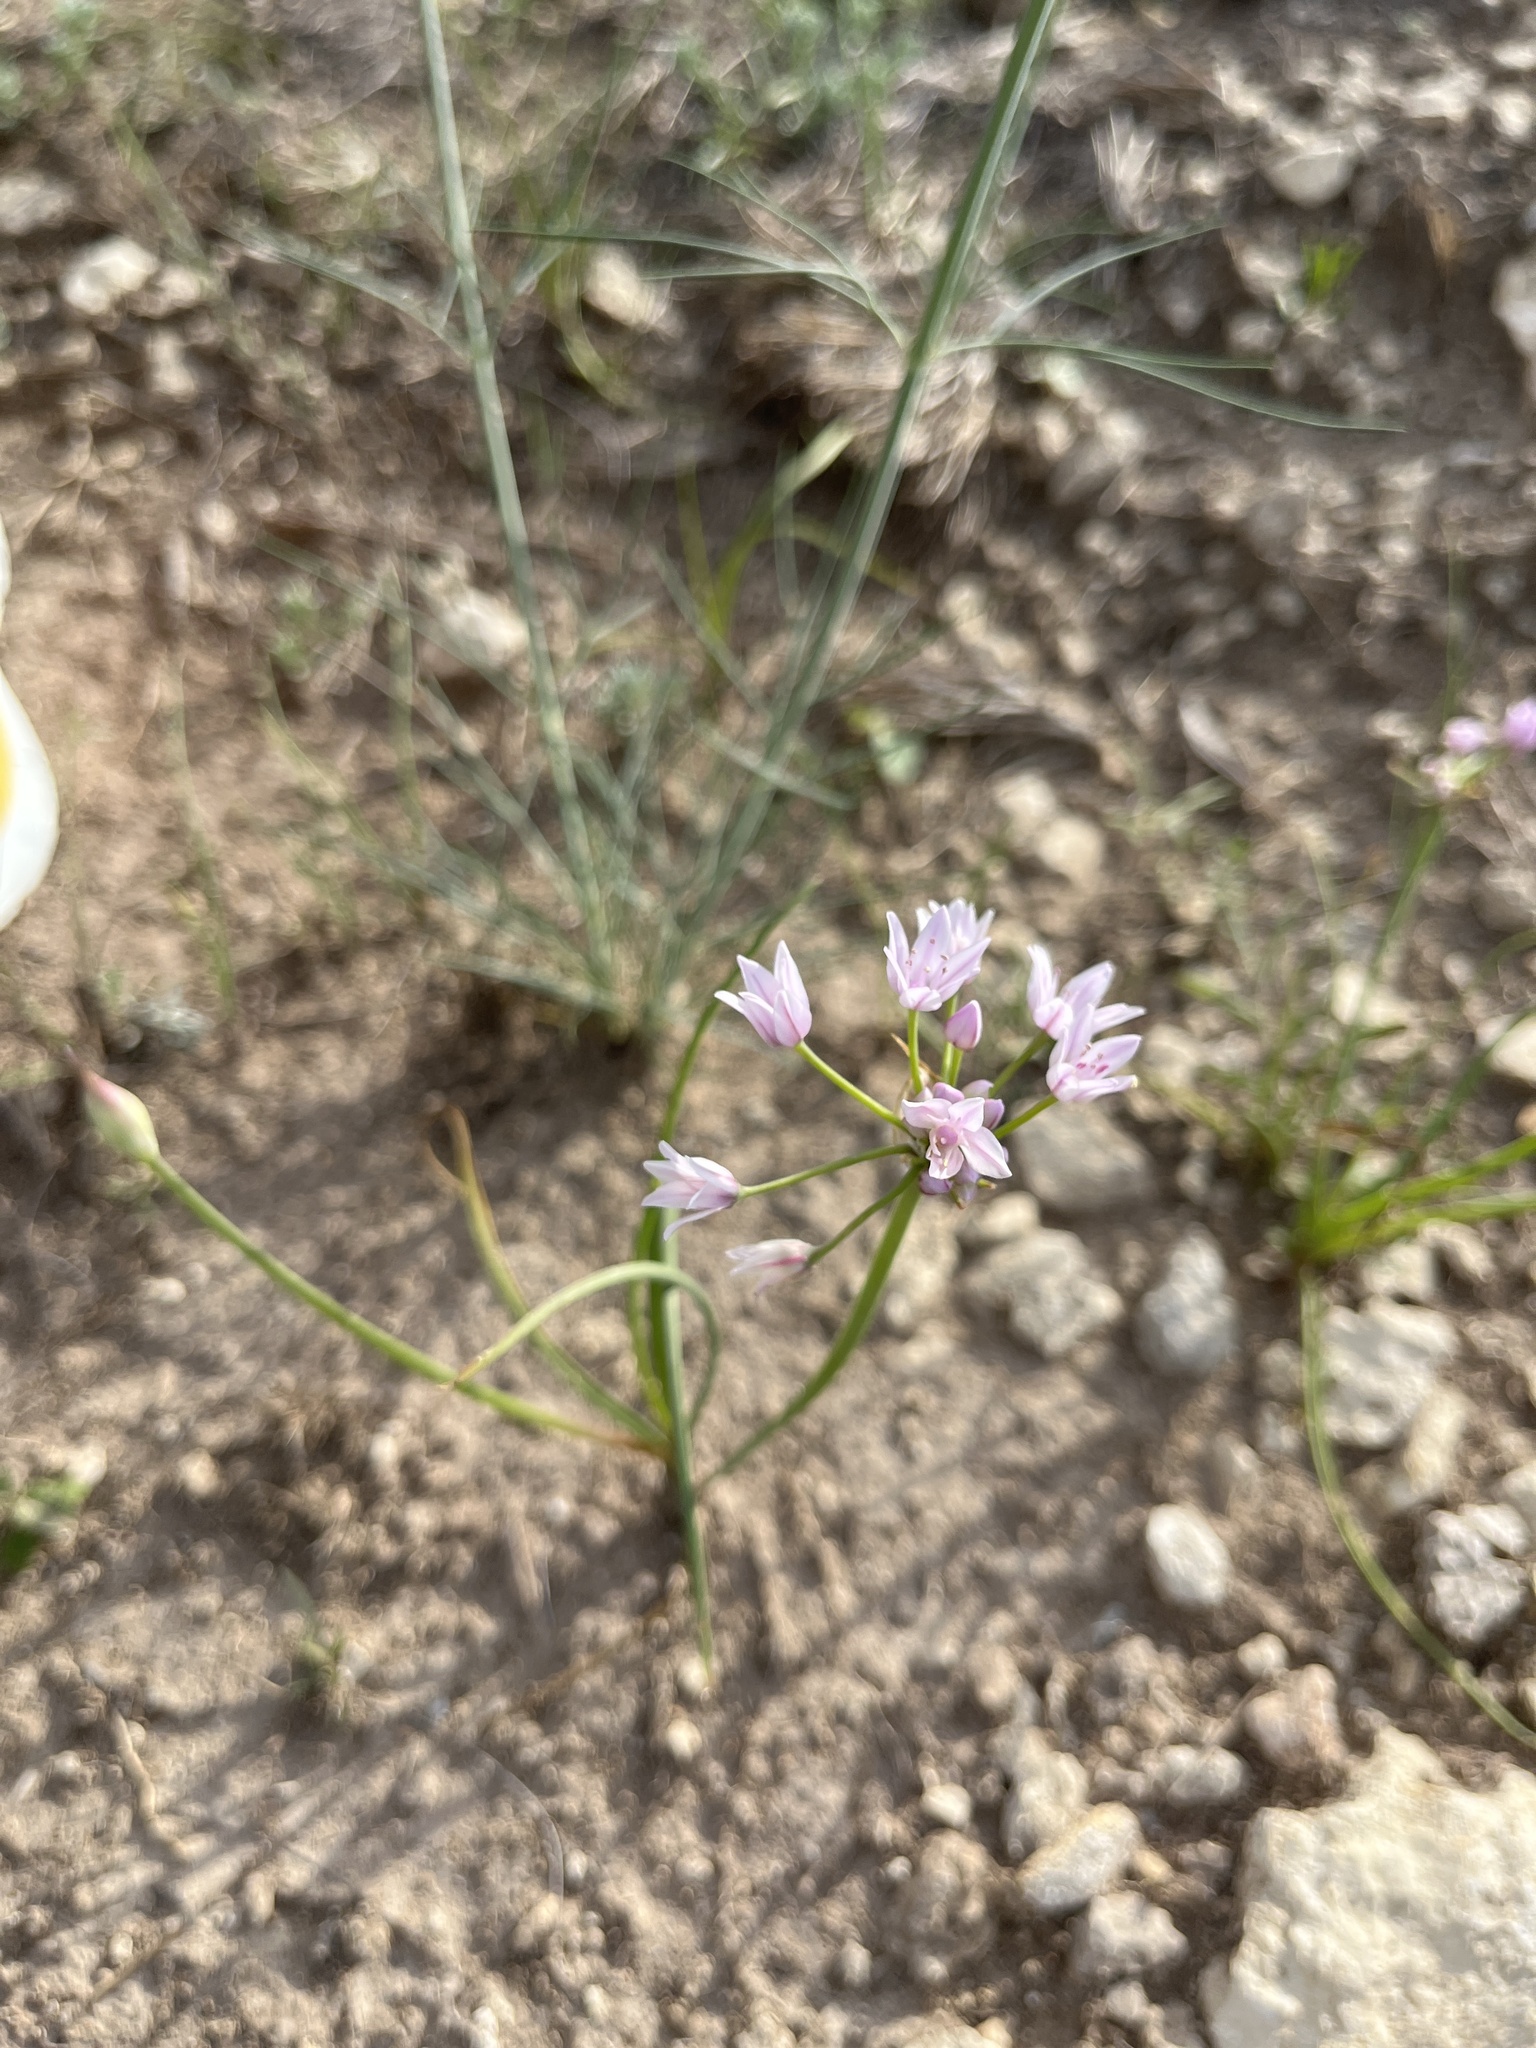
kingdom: Plantae
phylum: Tracheophyta
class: Liliopsida
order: Asparagales
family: Amaryllidaceae
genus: Allium
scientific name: Allium drummondii
